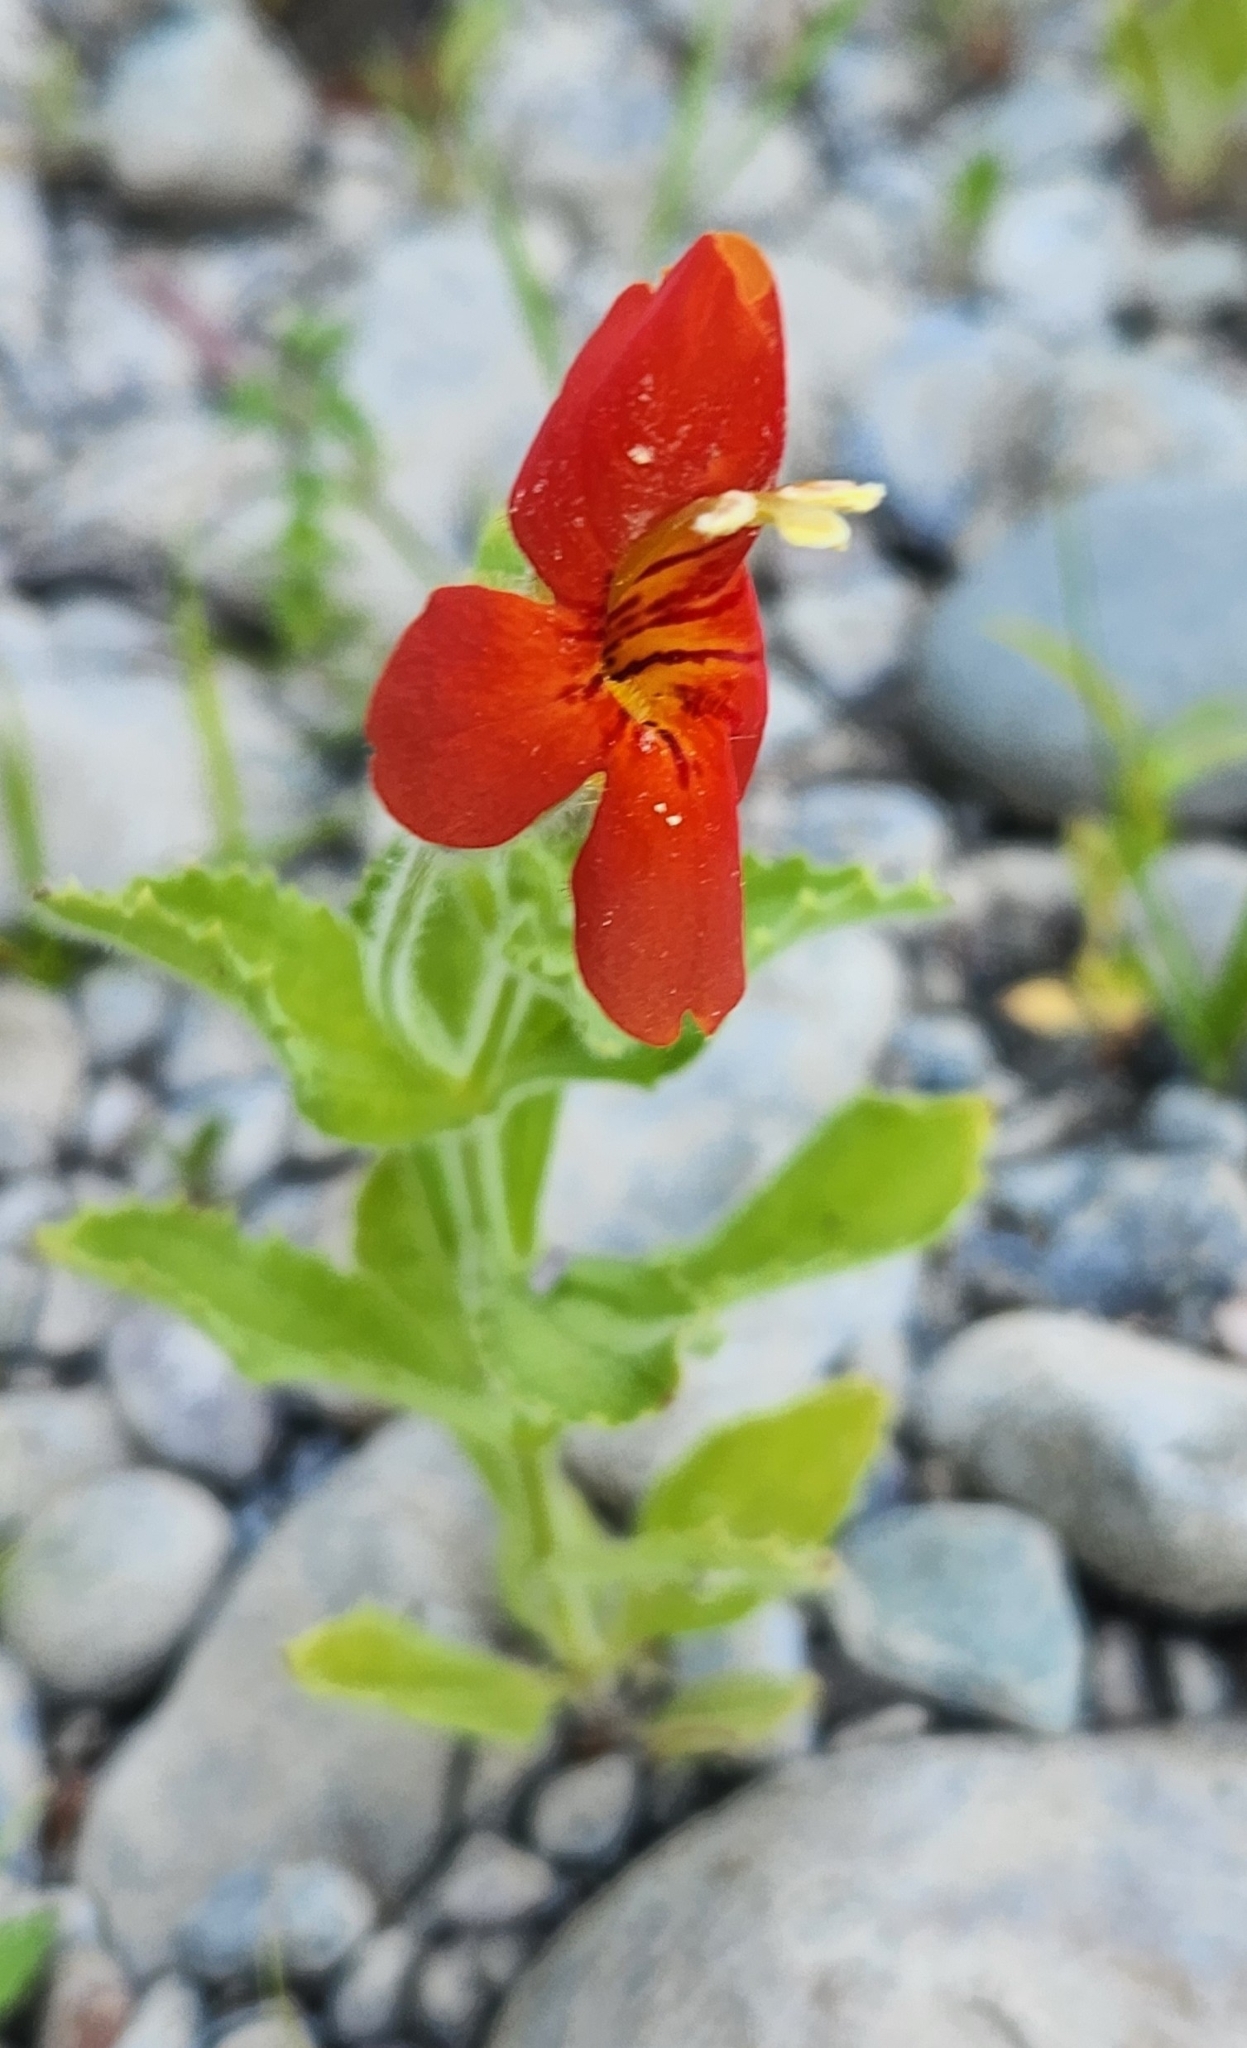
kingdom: Plantae
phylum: Tracheophyta
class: Magnoliopsida
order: Lamiales
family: Phrymaceae
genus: Erythranthe
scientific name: Erythranthe cardinalis
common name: Scarlet monkey-flower
